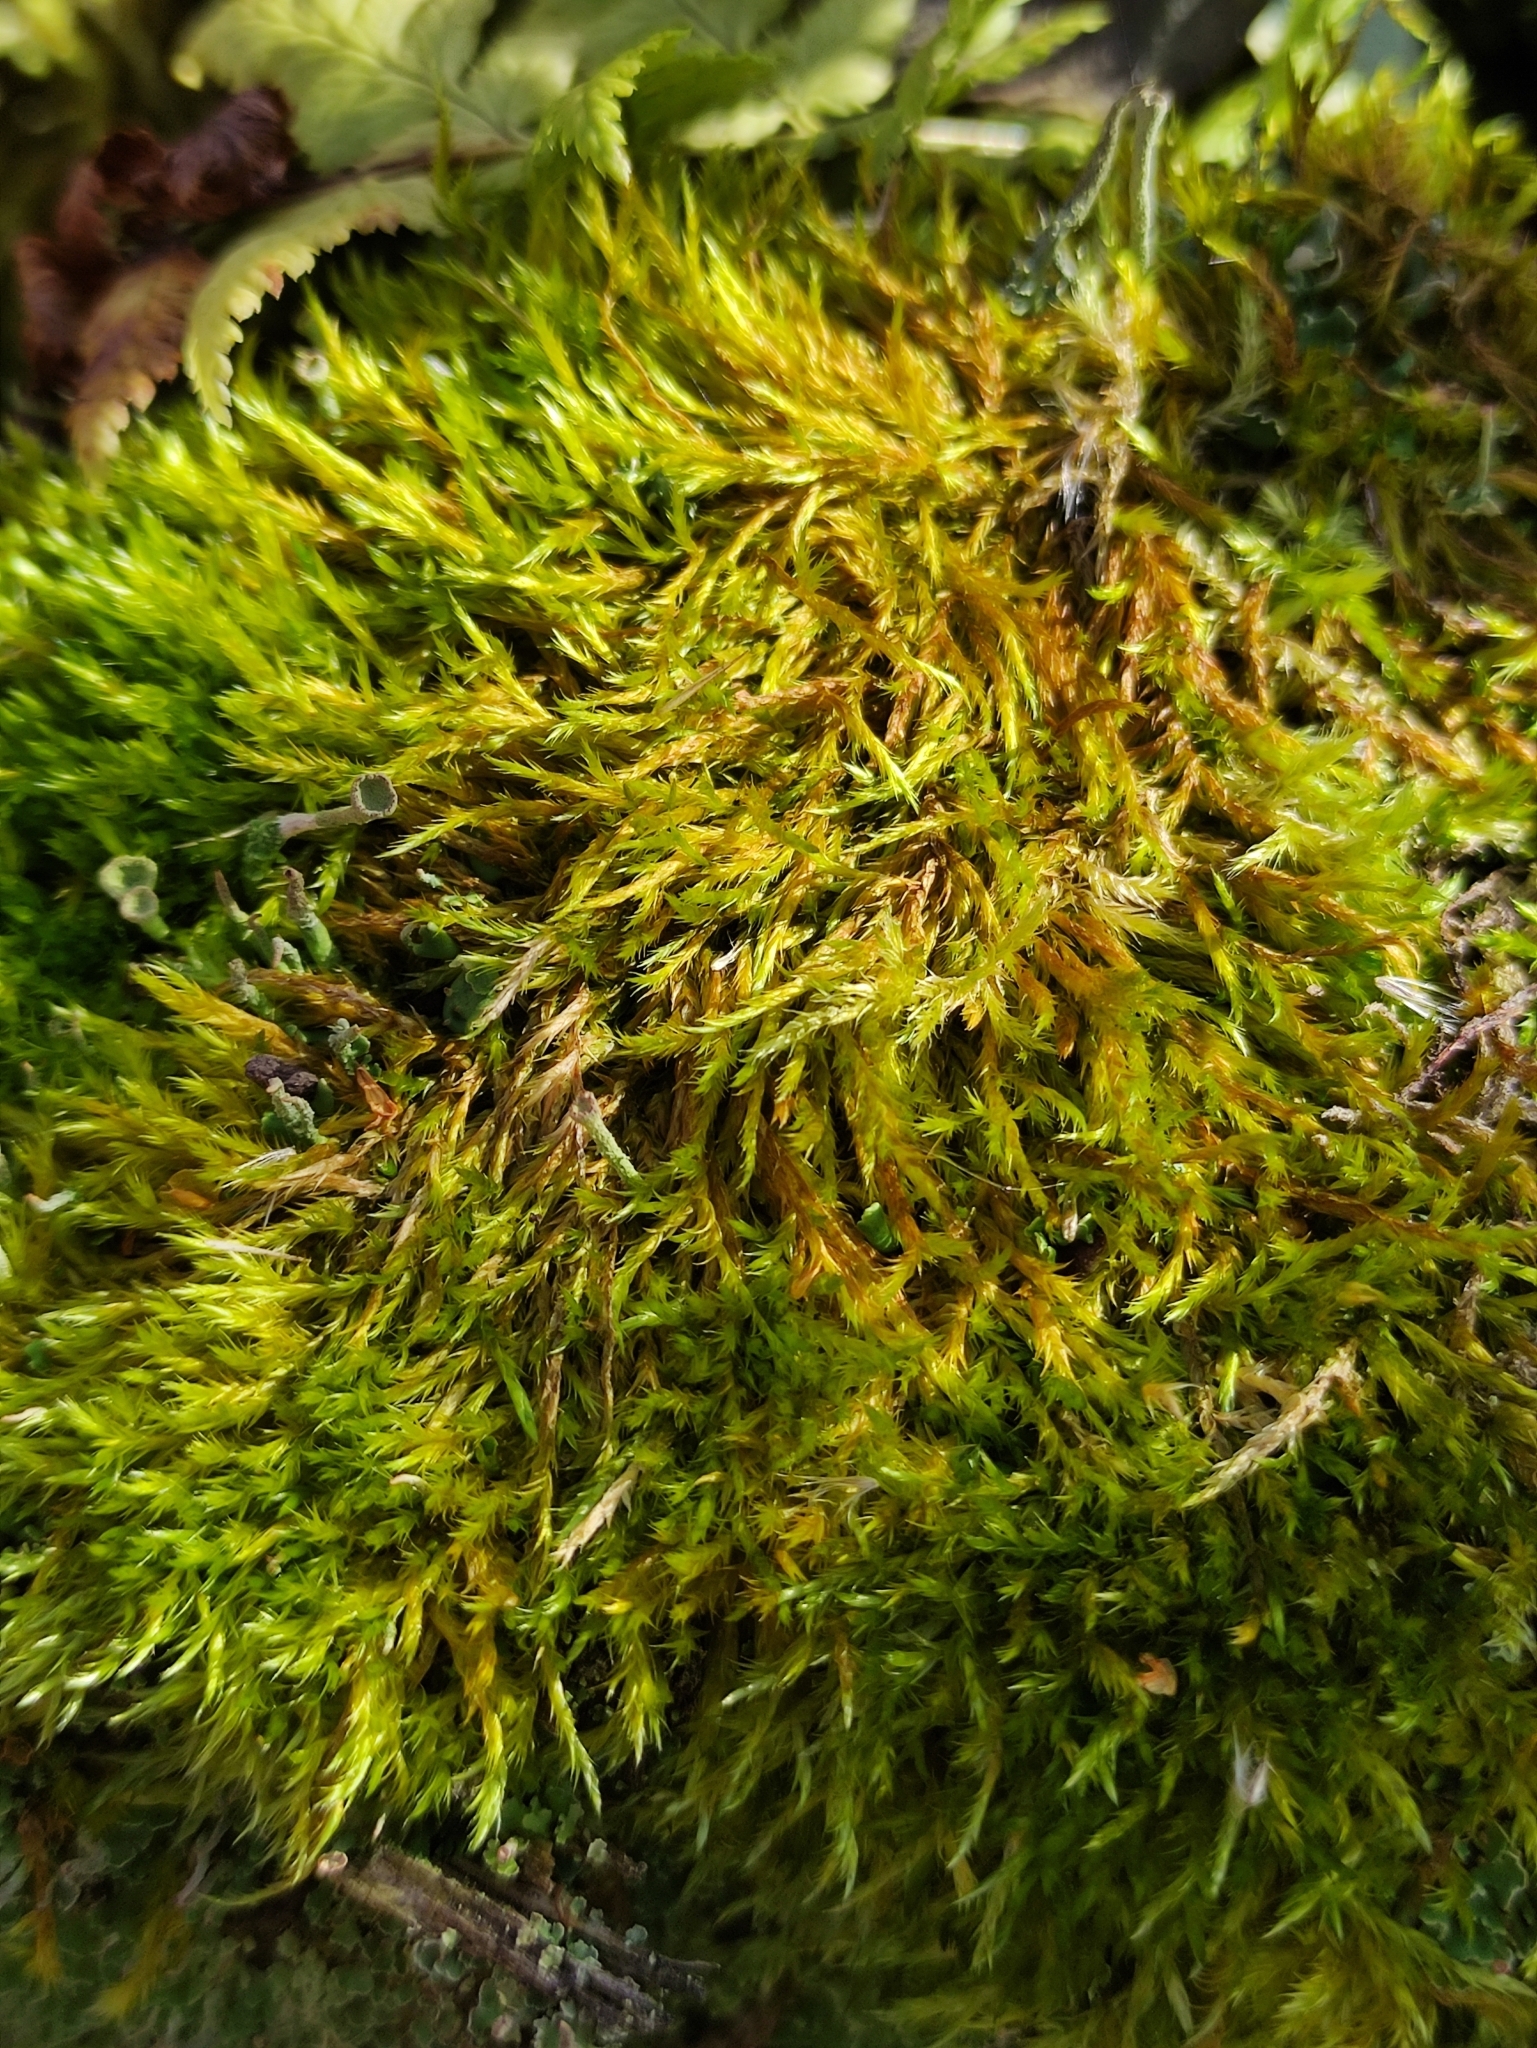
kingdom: Plantae
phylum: Bryophyta
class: Bryopsida
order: Hypnales
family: Brachytheciaceae
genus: Sciuro-hypnum
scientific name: Sciuro-hypnum populeum
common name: Matted feather-moss
